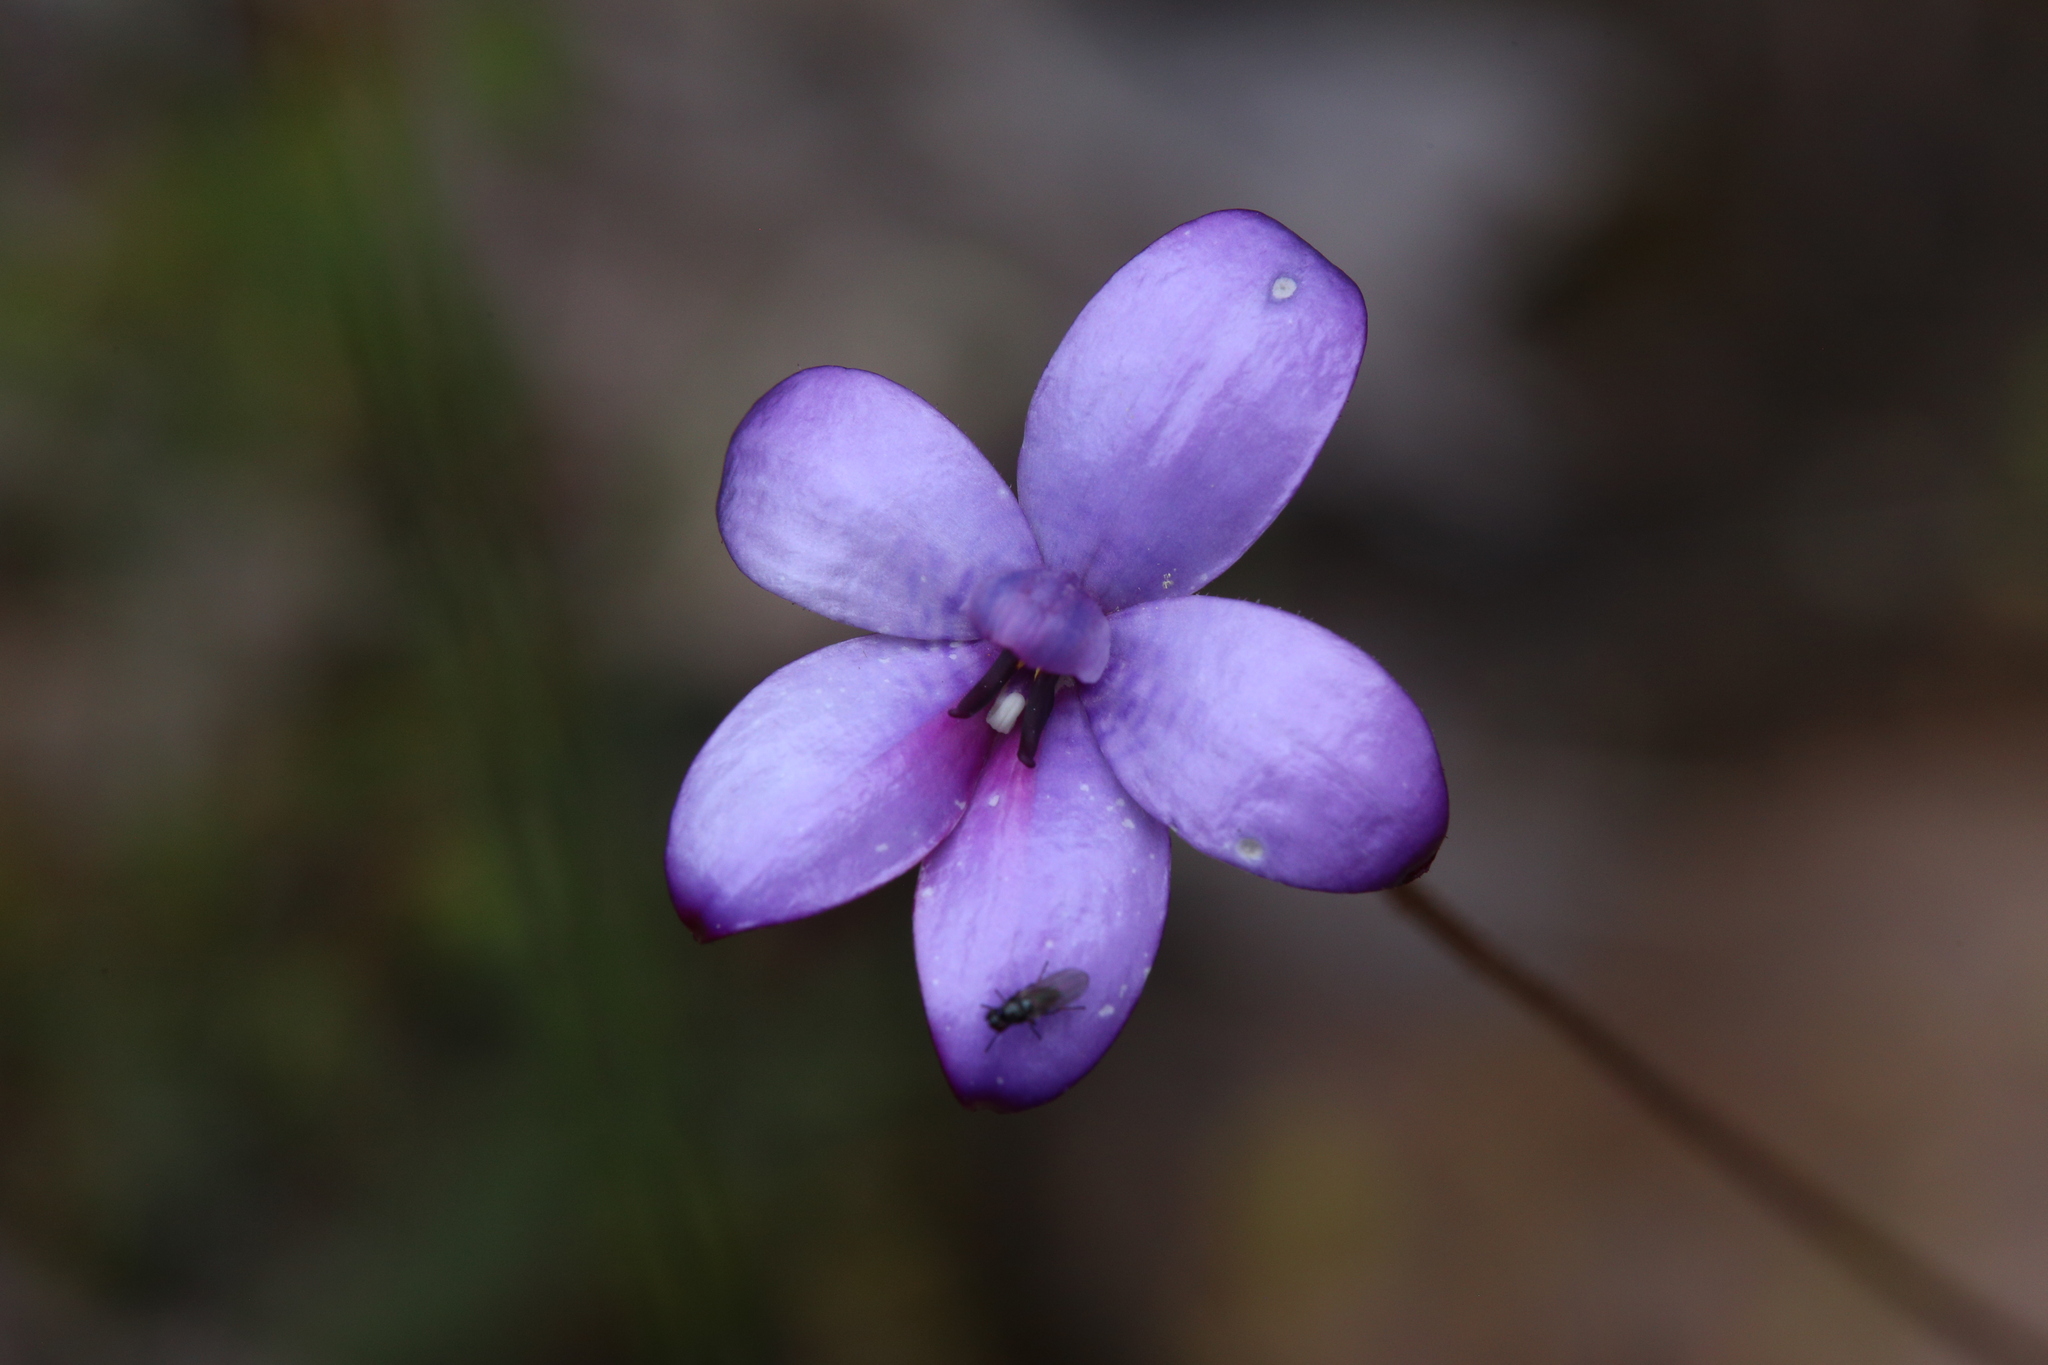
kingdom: Plantae
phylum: Tracheophyta
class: Liliopsida
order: Asparagales
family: Orchidaceae
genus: Caladenia
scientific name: Caladenia brunonis
